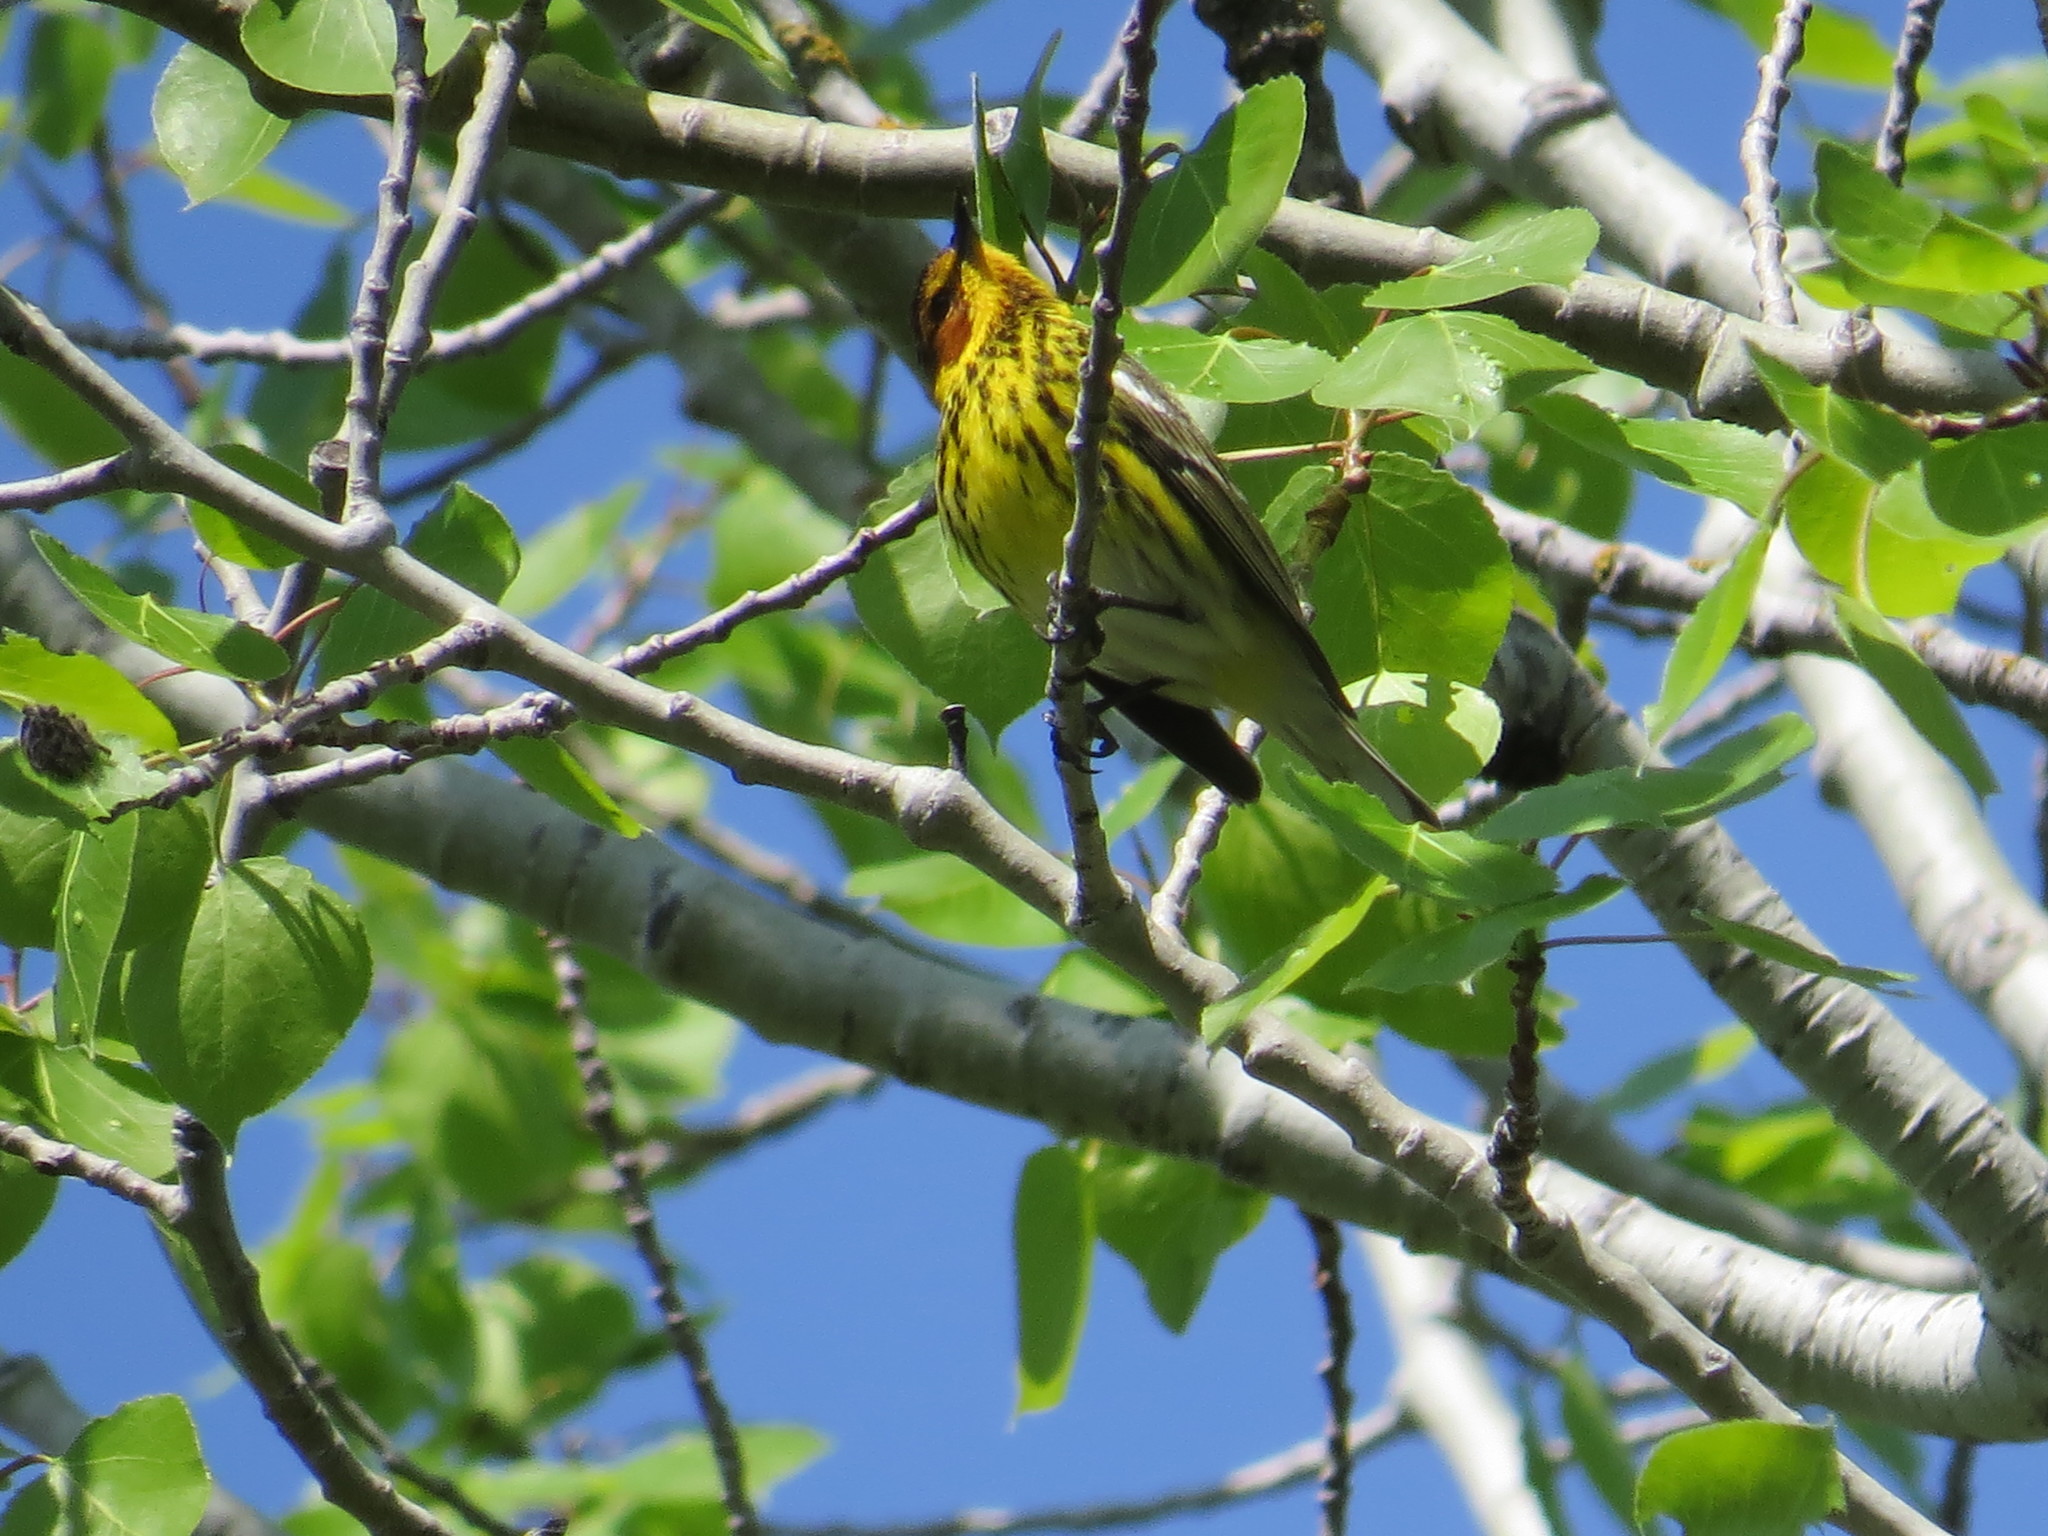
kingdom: Animalia
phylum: Chordata
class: Aves
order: Passeriformes
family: Parulidae
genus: Setophaga
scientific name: Setophaga tigrina
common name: Cape may warbler
